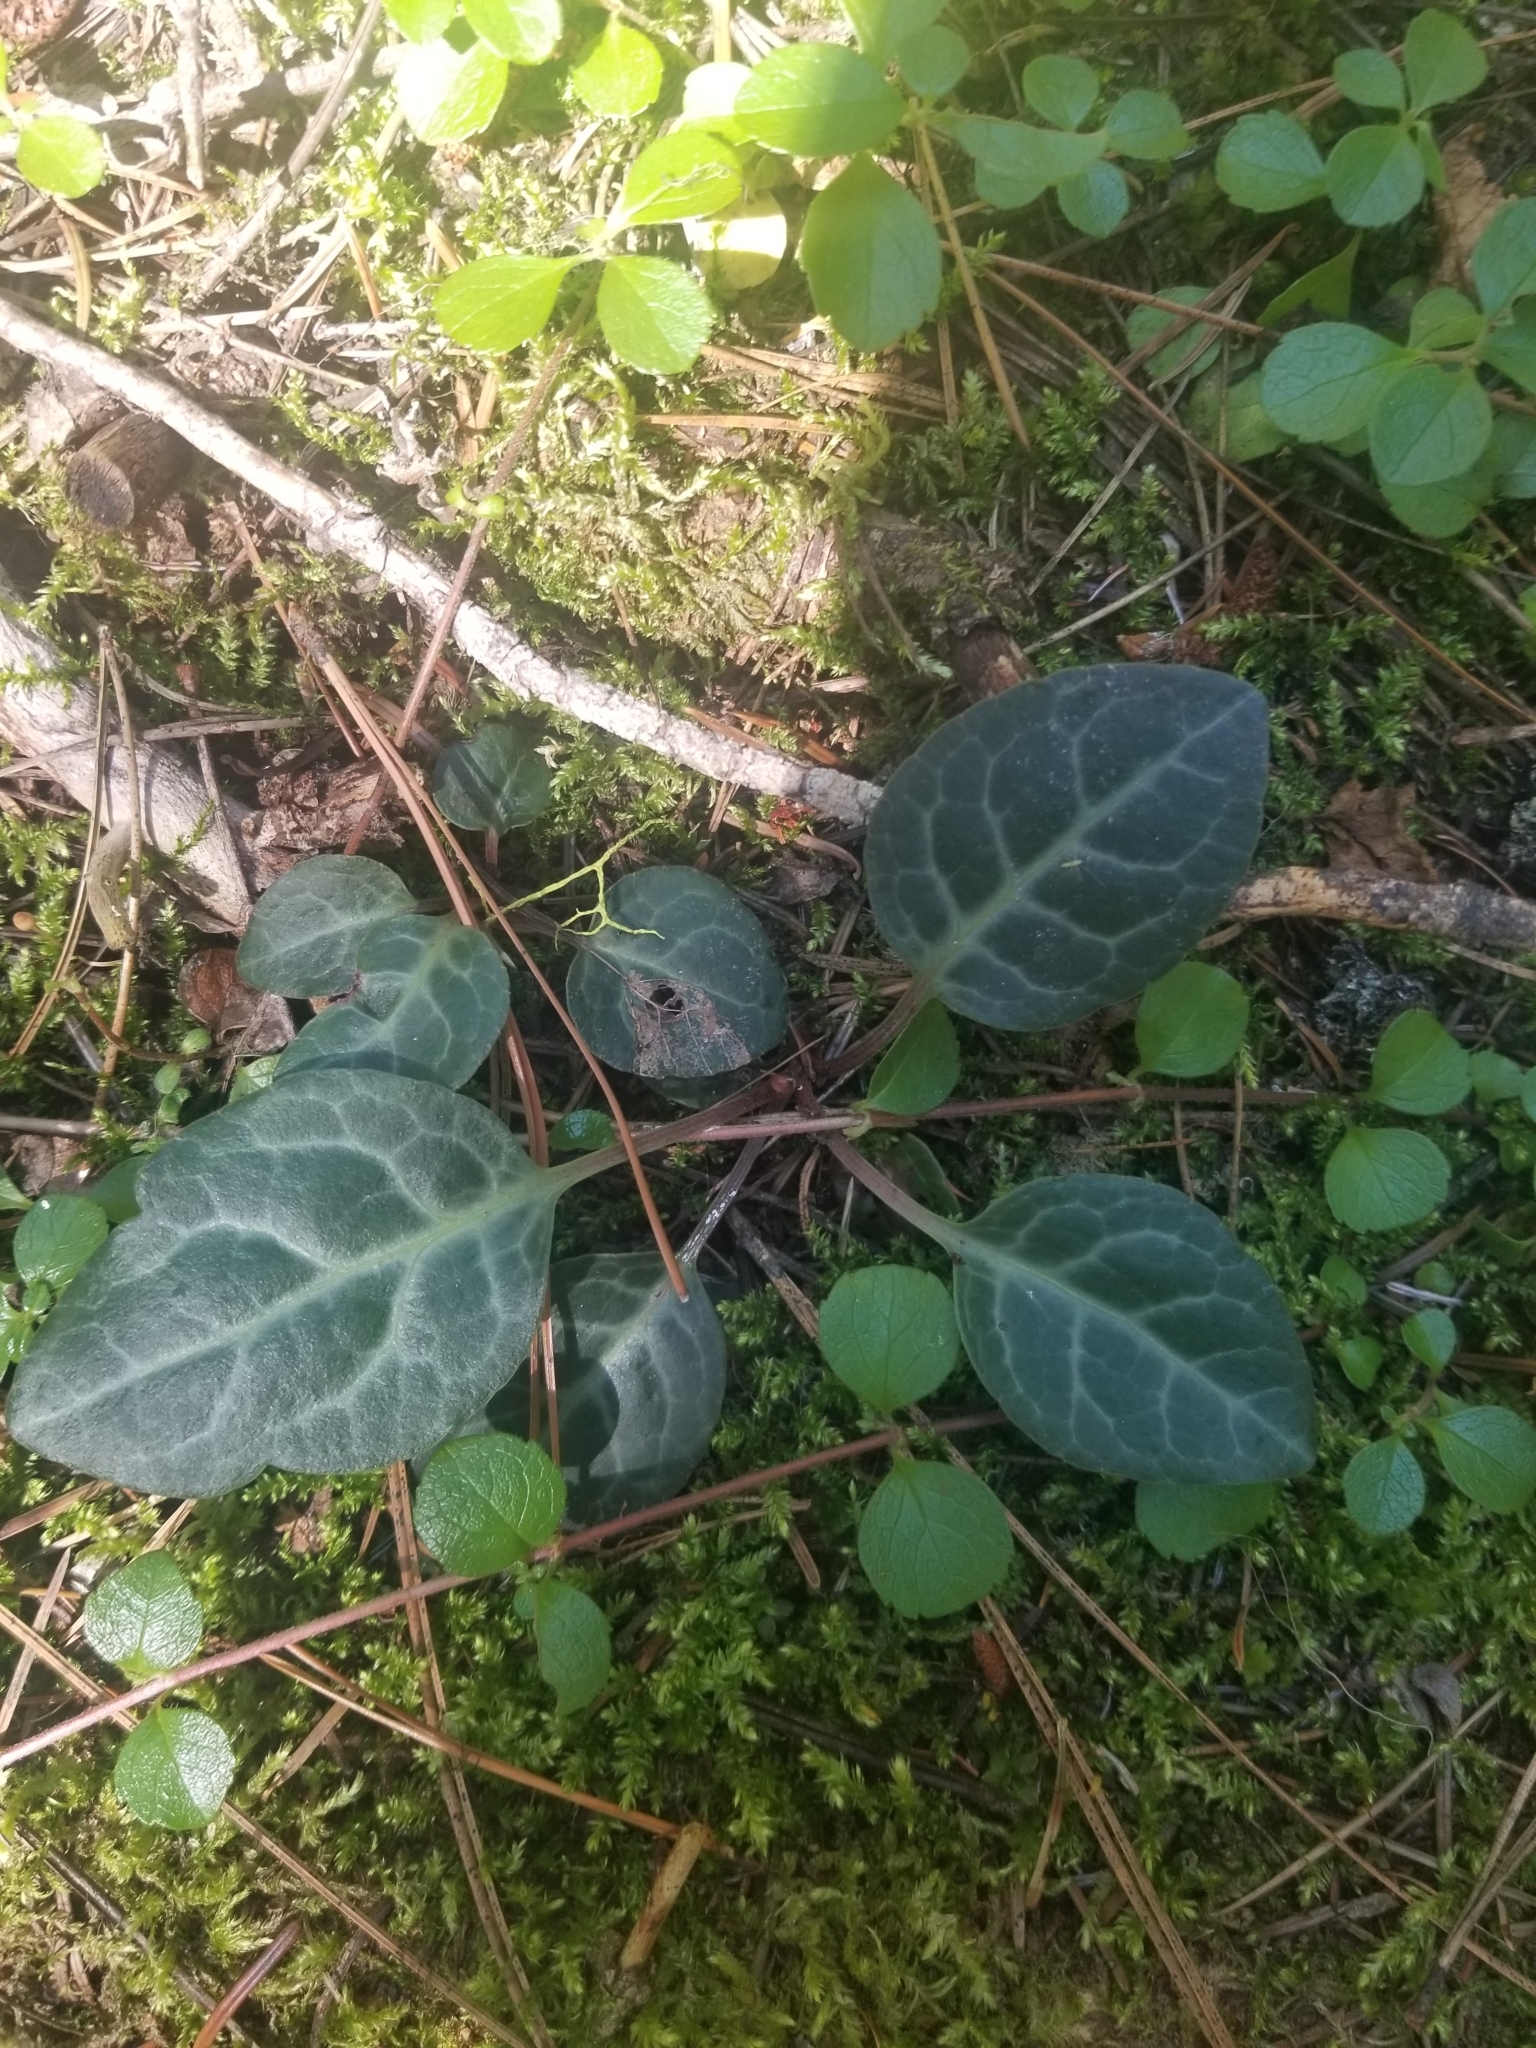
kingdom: Plantae
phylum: Tracheophyta
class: Magnoliopsida
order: Ericales
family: Ericaceae
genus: Pyrola
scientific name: Pyrola chlorantha
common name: Green wintergreen
